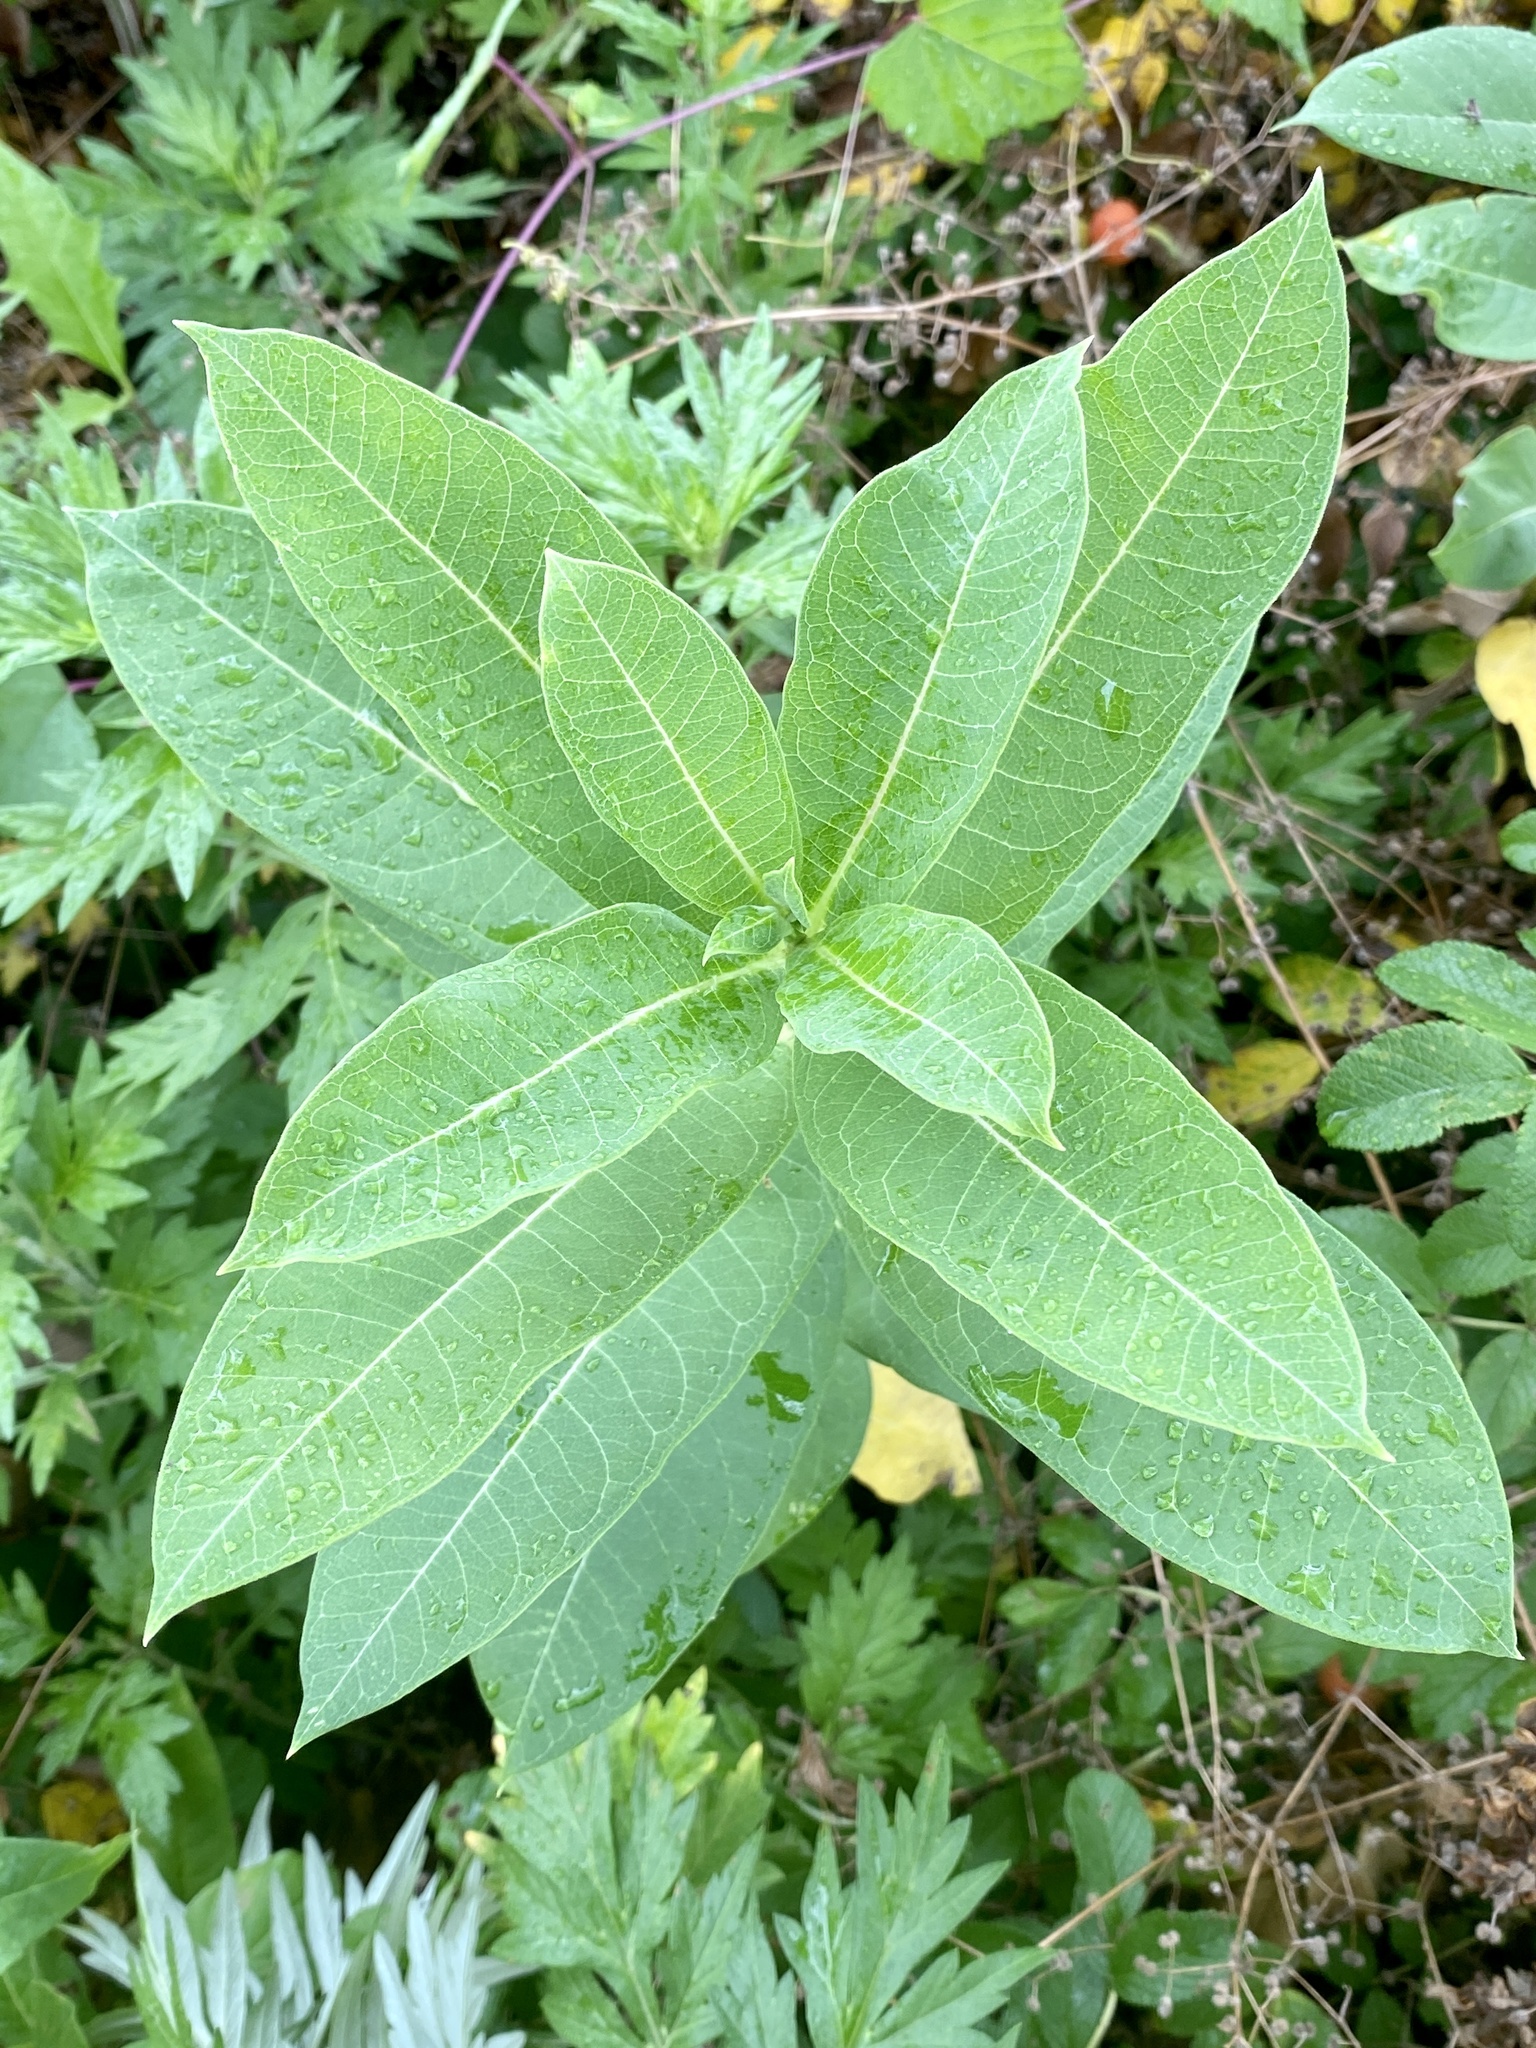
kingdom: Plantae
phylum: Tracheophyta
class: Magnoliopsida
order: Gentianales
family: Apocynaceae
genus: Asclepias
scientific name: Asclepias syriaca
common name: Common milkweed
